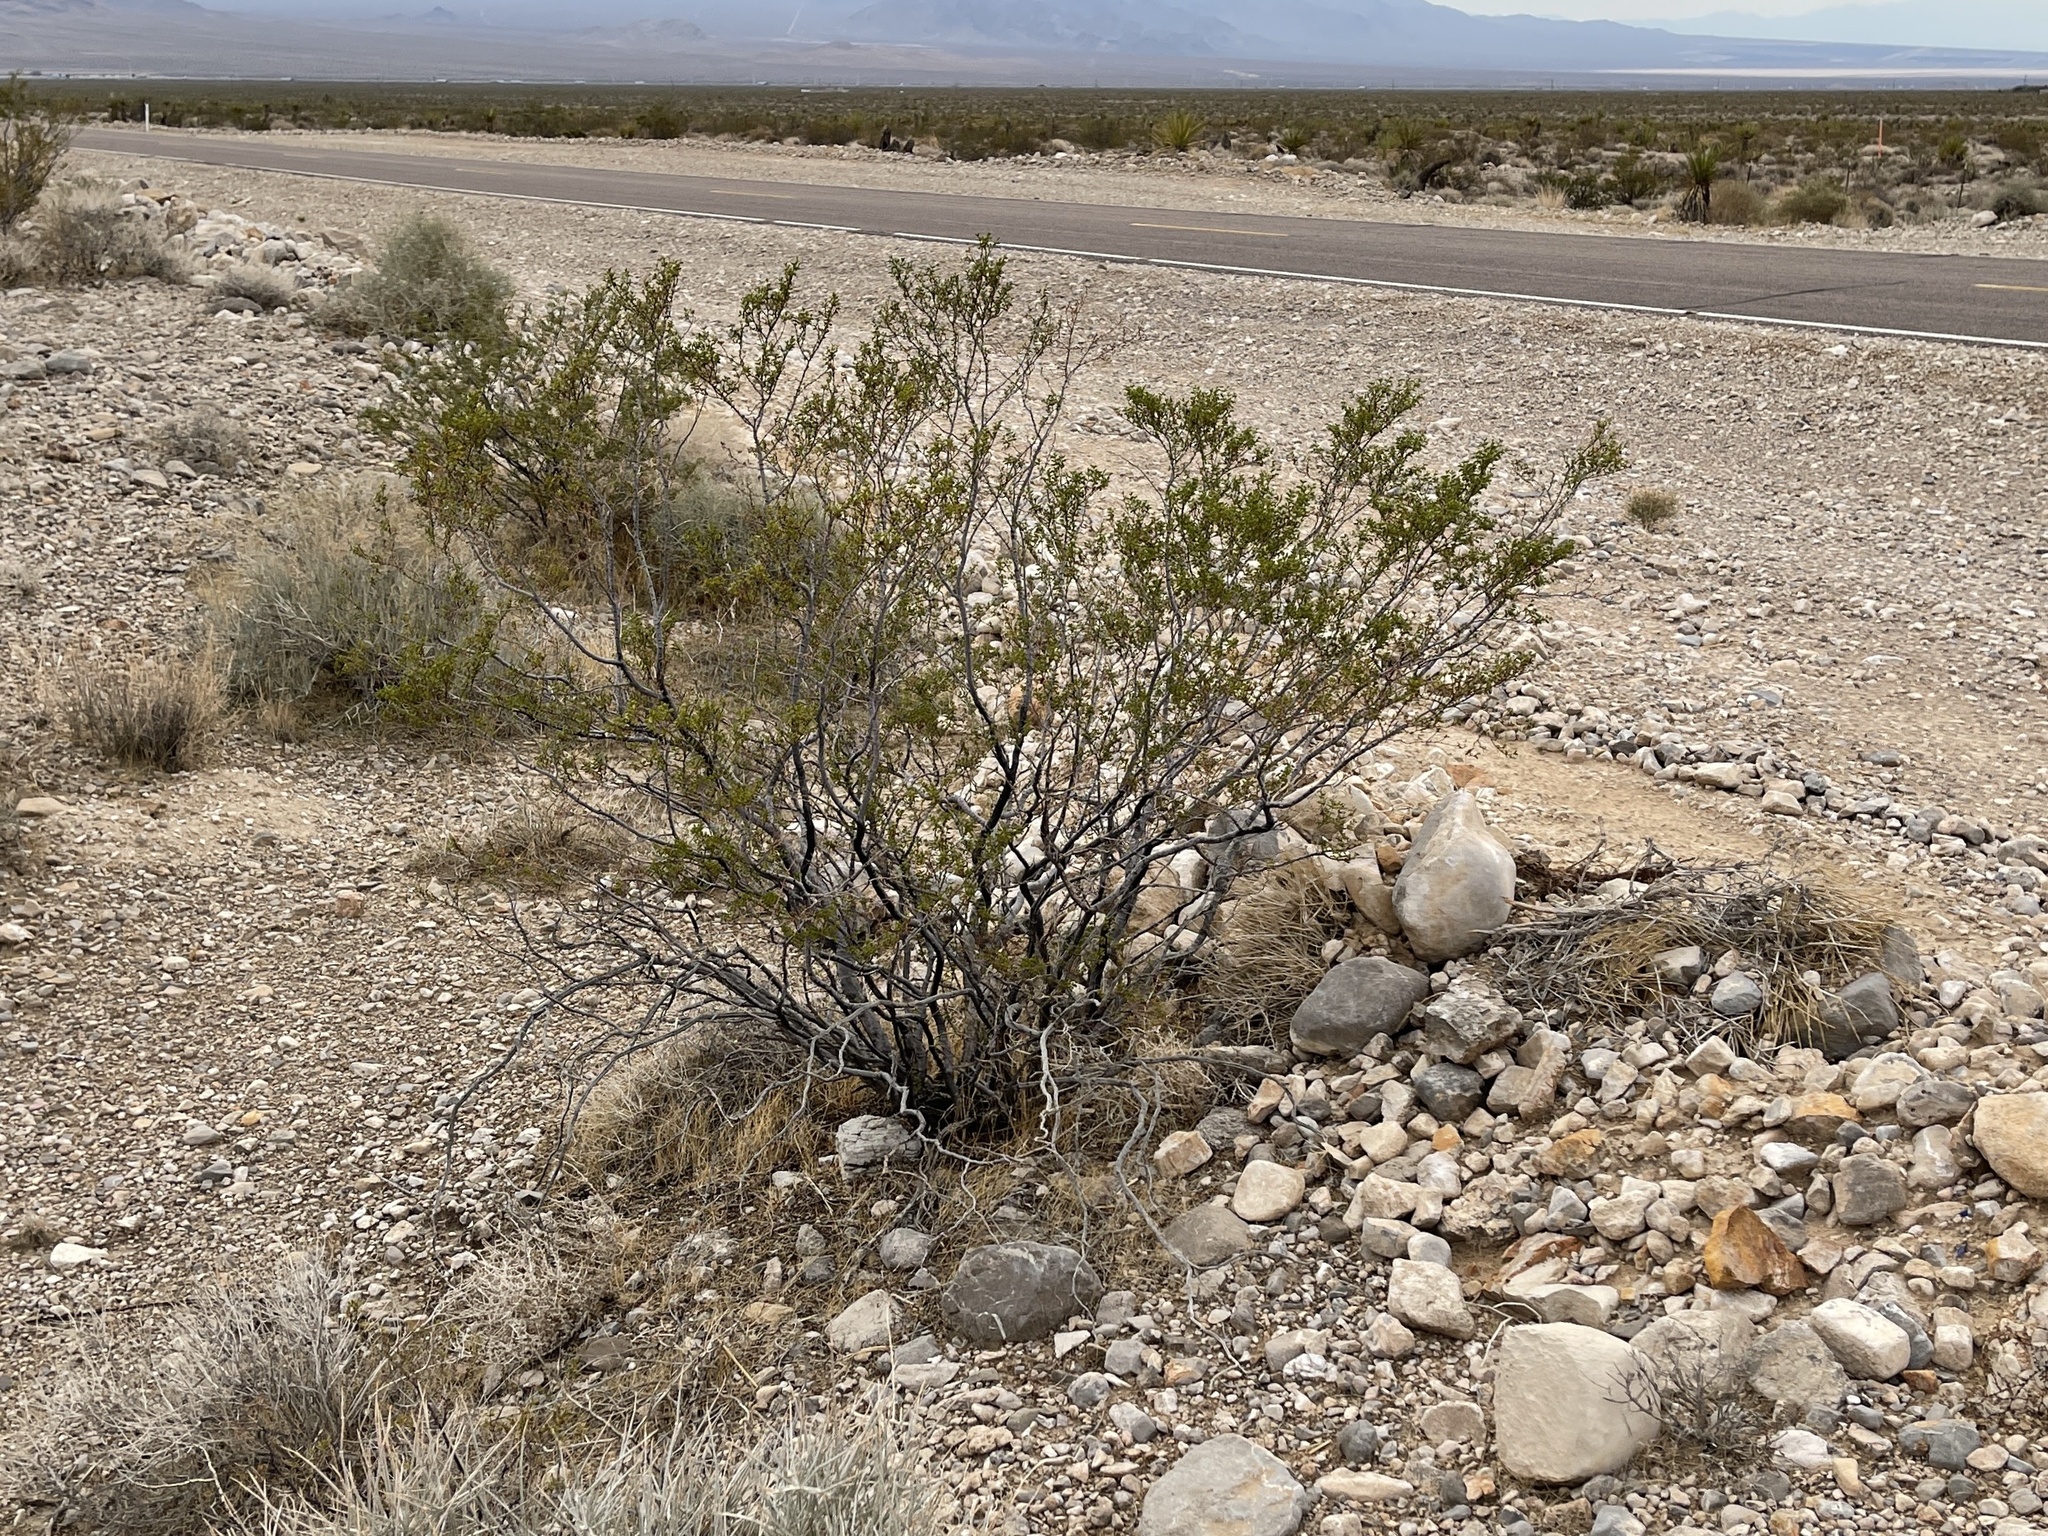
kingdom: Plantae
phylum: Tracheophyta
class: Magnoliopsida
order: Zygophyllales
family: Zygophyllaceae
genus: Larrea
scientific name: Larrea tridentata
